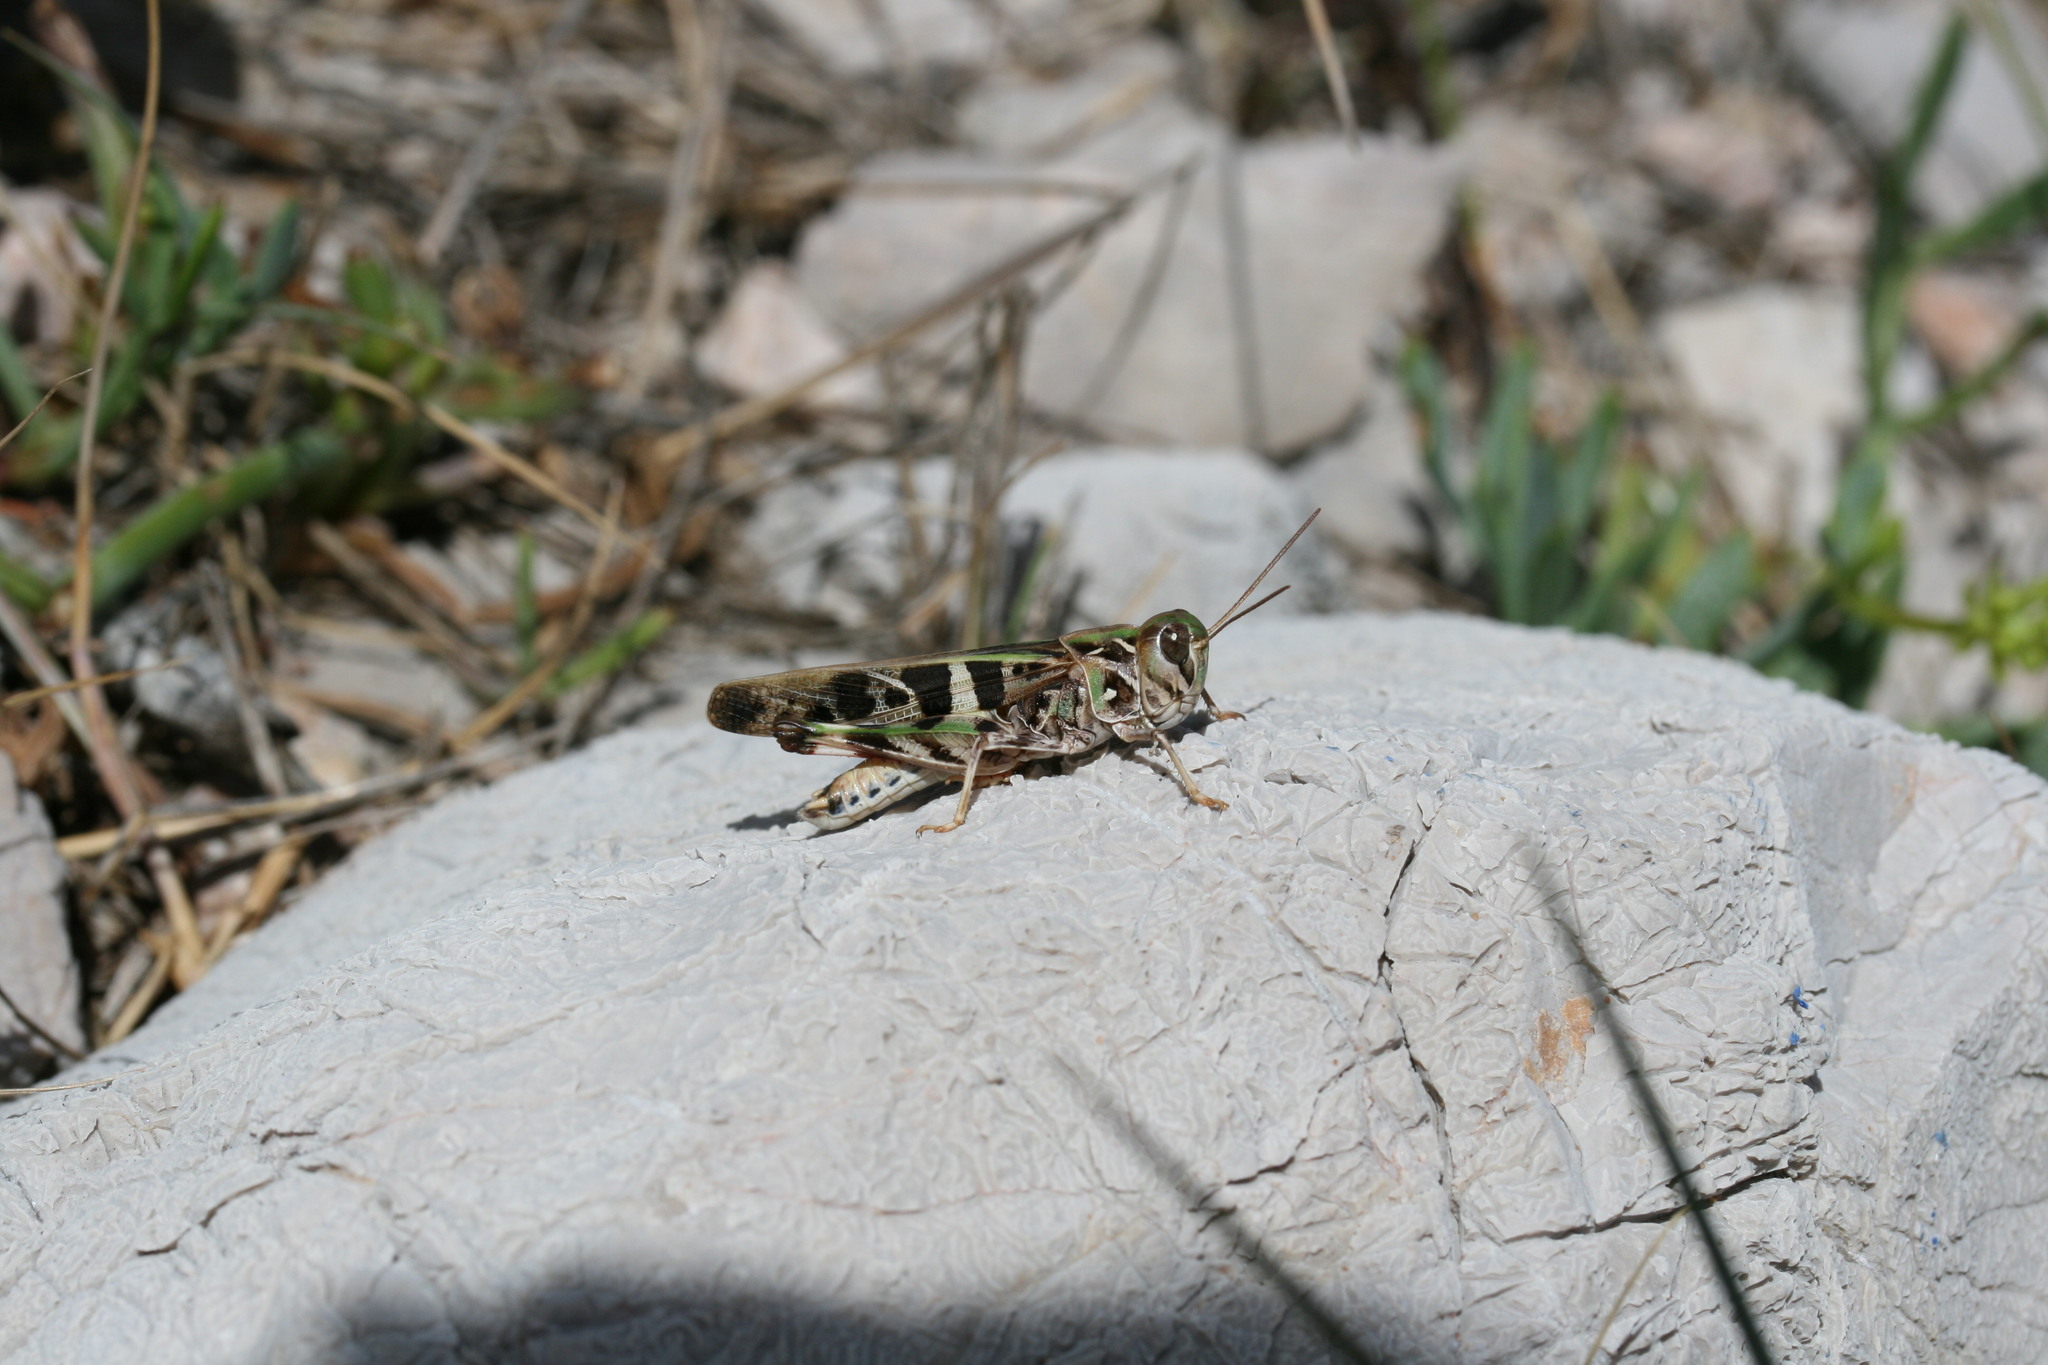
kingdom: Animalia
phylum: Arthropoda
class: Insecta
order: Orthoptera
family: Acrididae
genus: Oedaleus
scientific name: Oedaleus decorus
